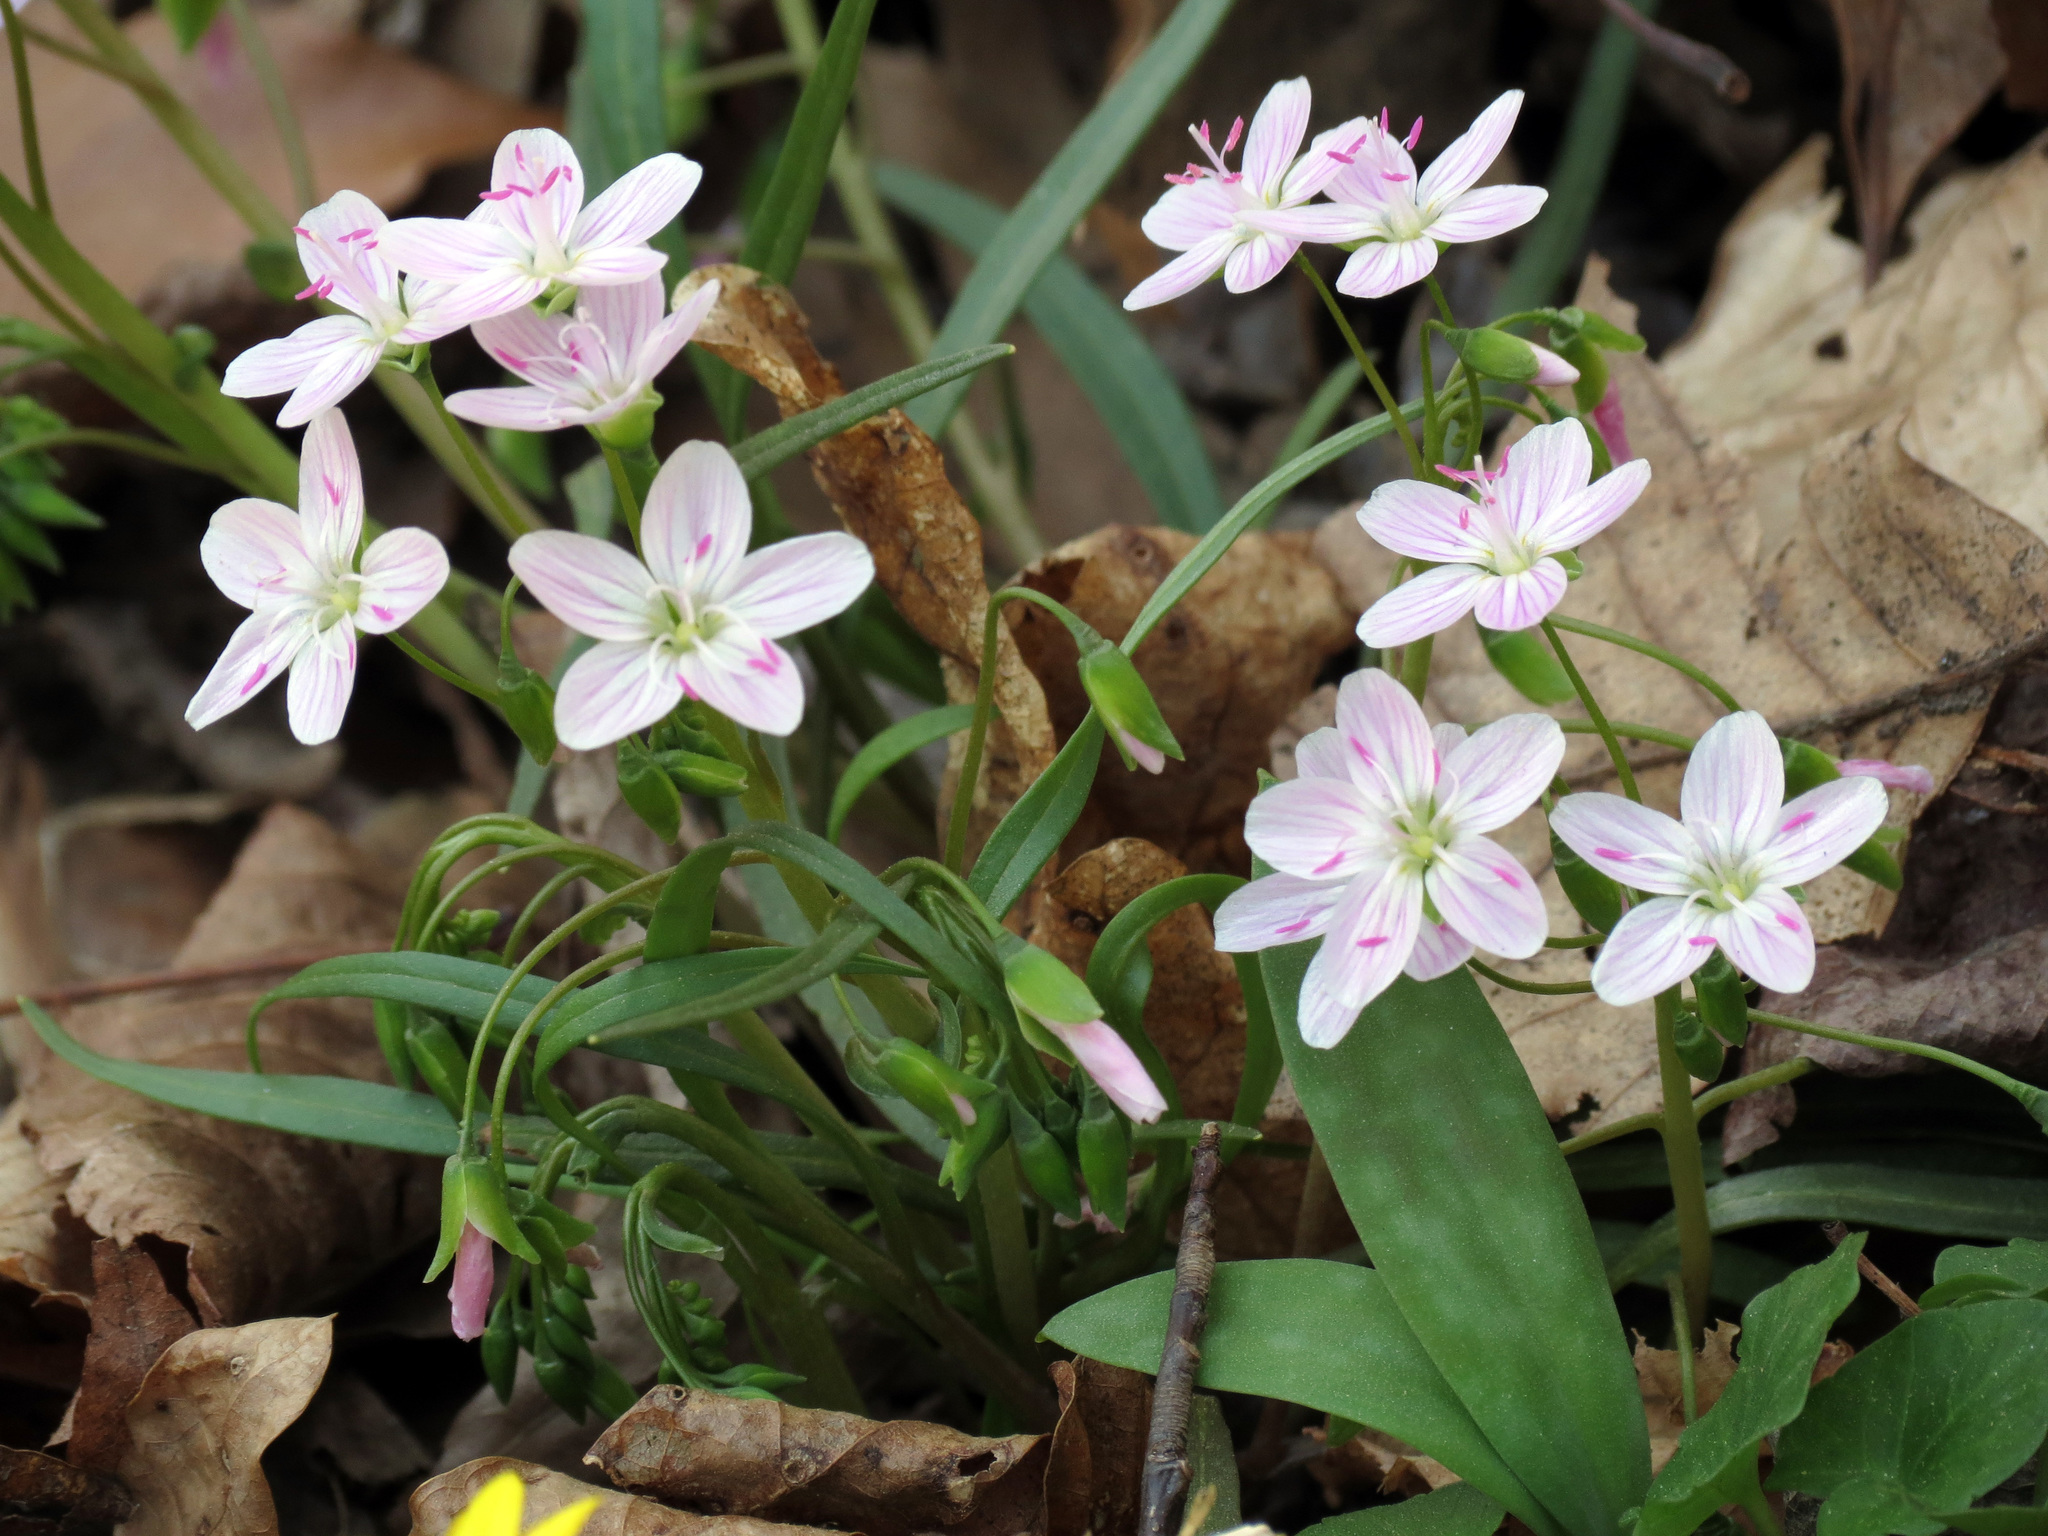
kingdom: Plantae
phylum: Tracheophyta
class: Magnoliopsida
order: Caryophyllales
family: Montiaceae
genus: Claytonia
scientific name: Claytonia virginica
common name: Virginia springbeauty
